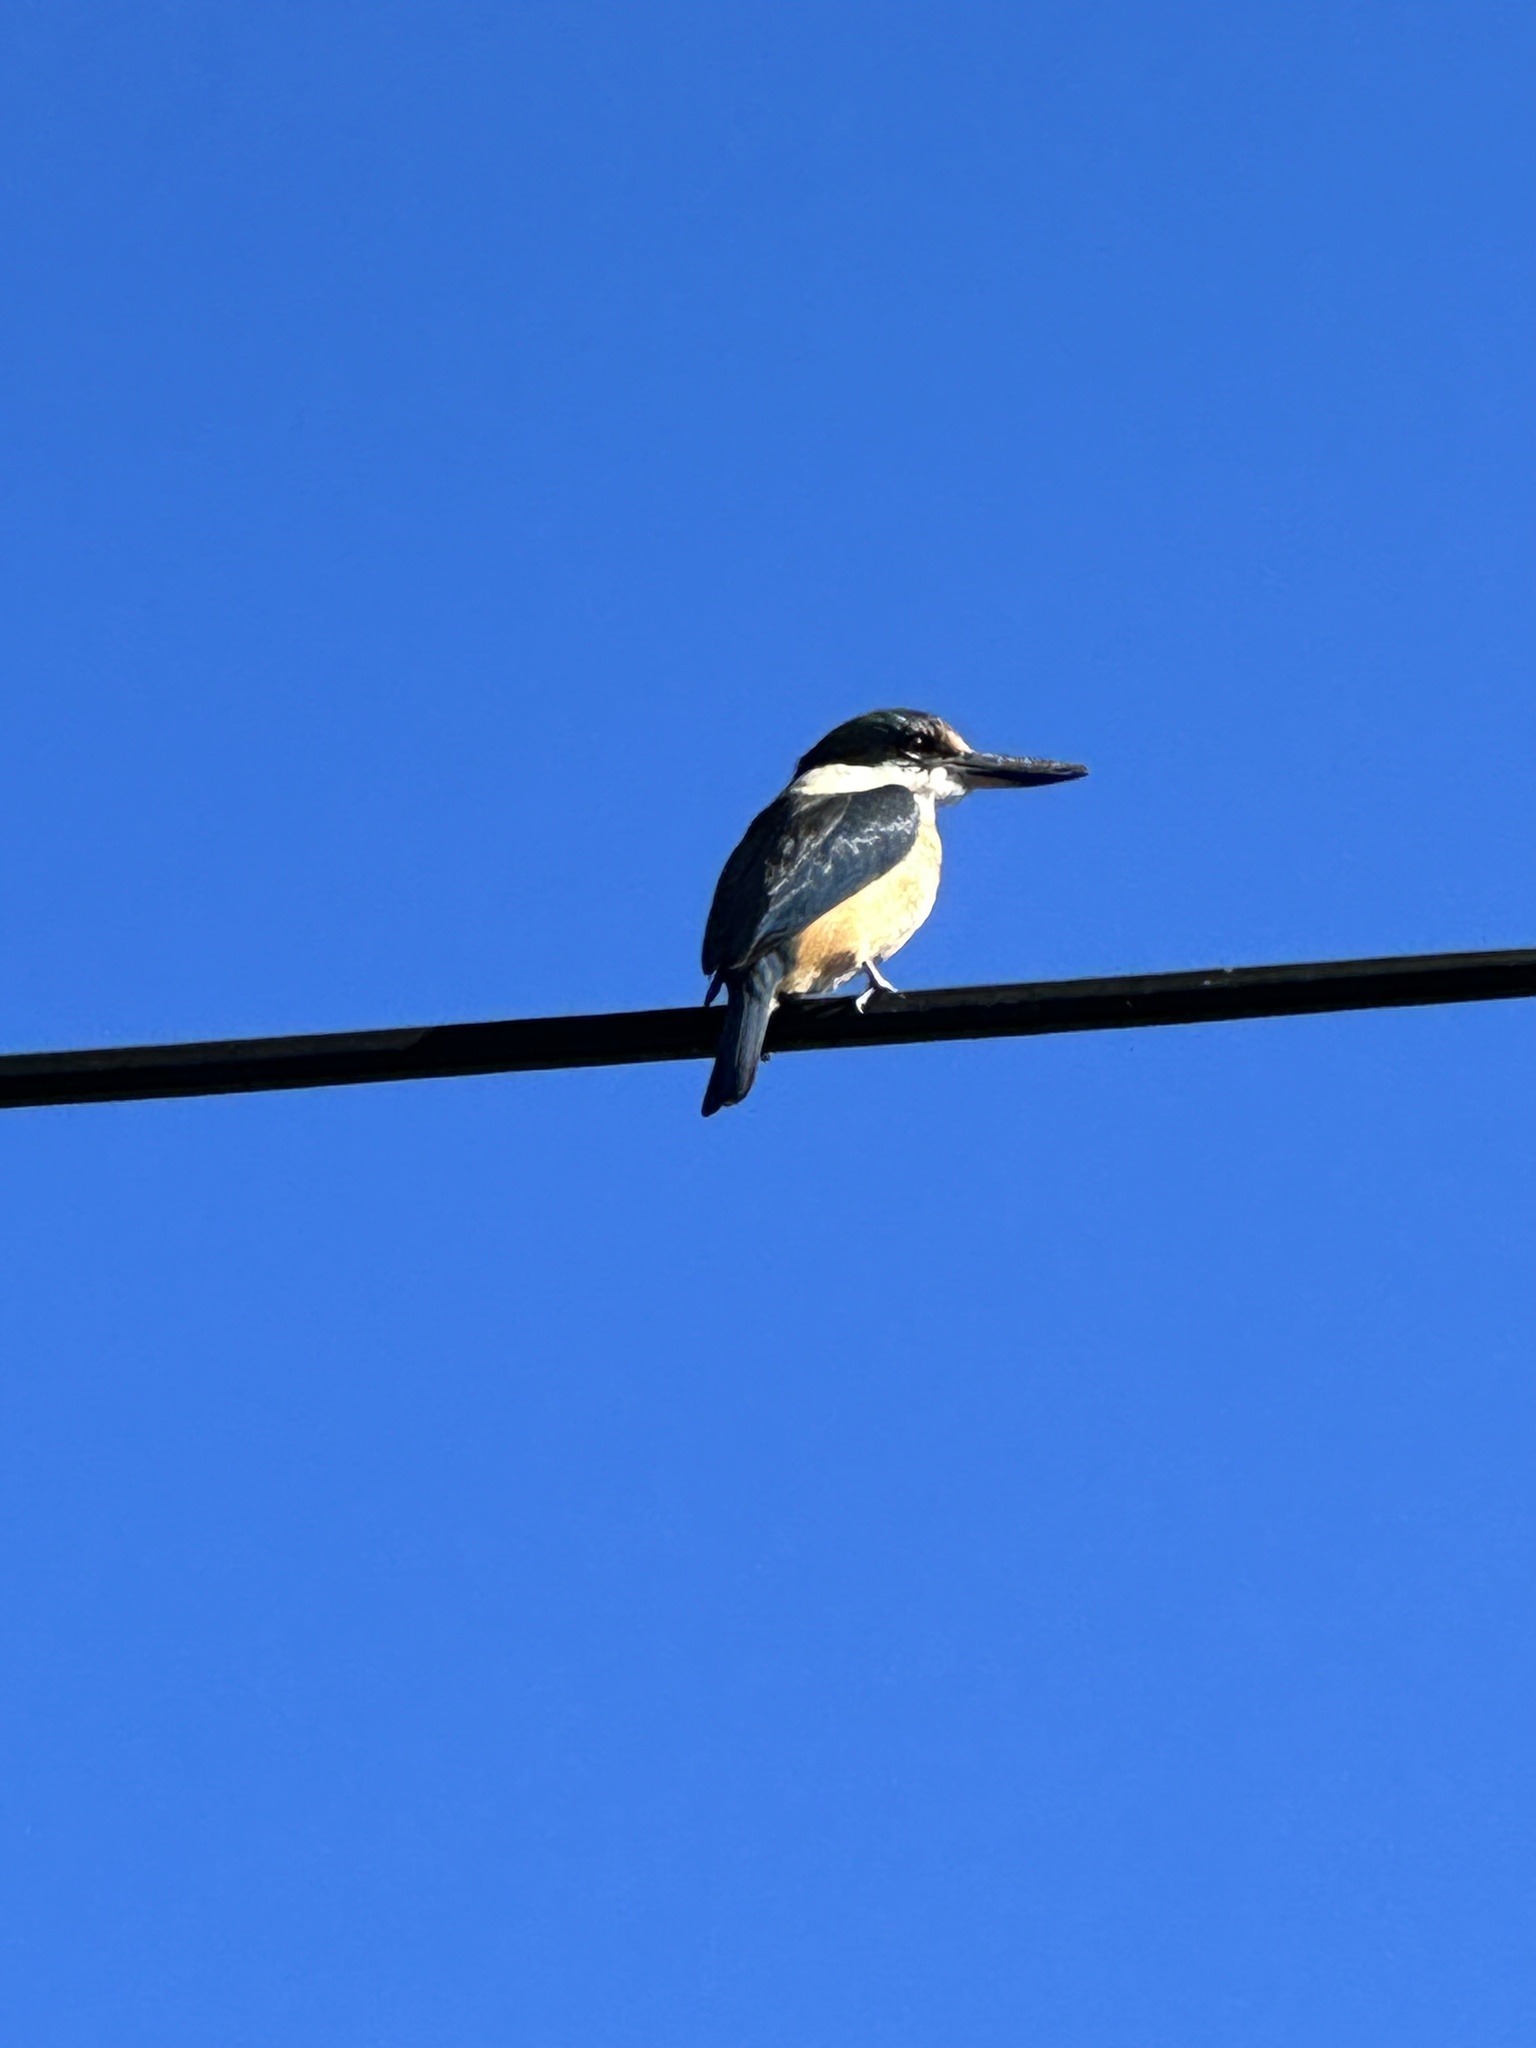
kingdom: Animalia
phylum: Chordata
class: Aves
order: Coraciiformes
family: Alcedinidae
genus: Todiramphus
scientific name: Todiramphus sanctus
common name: Sacred kingfisher
